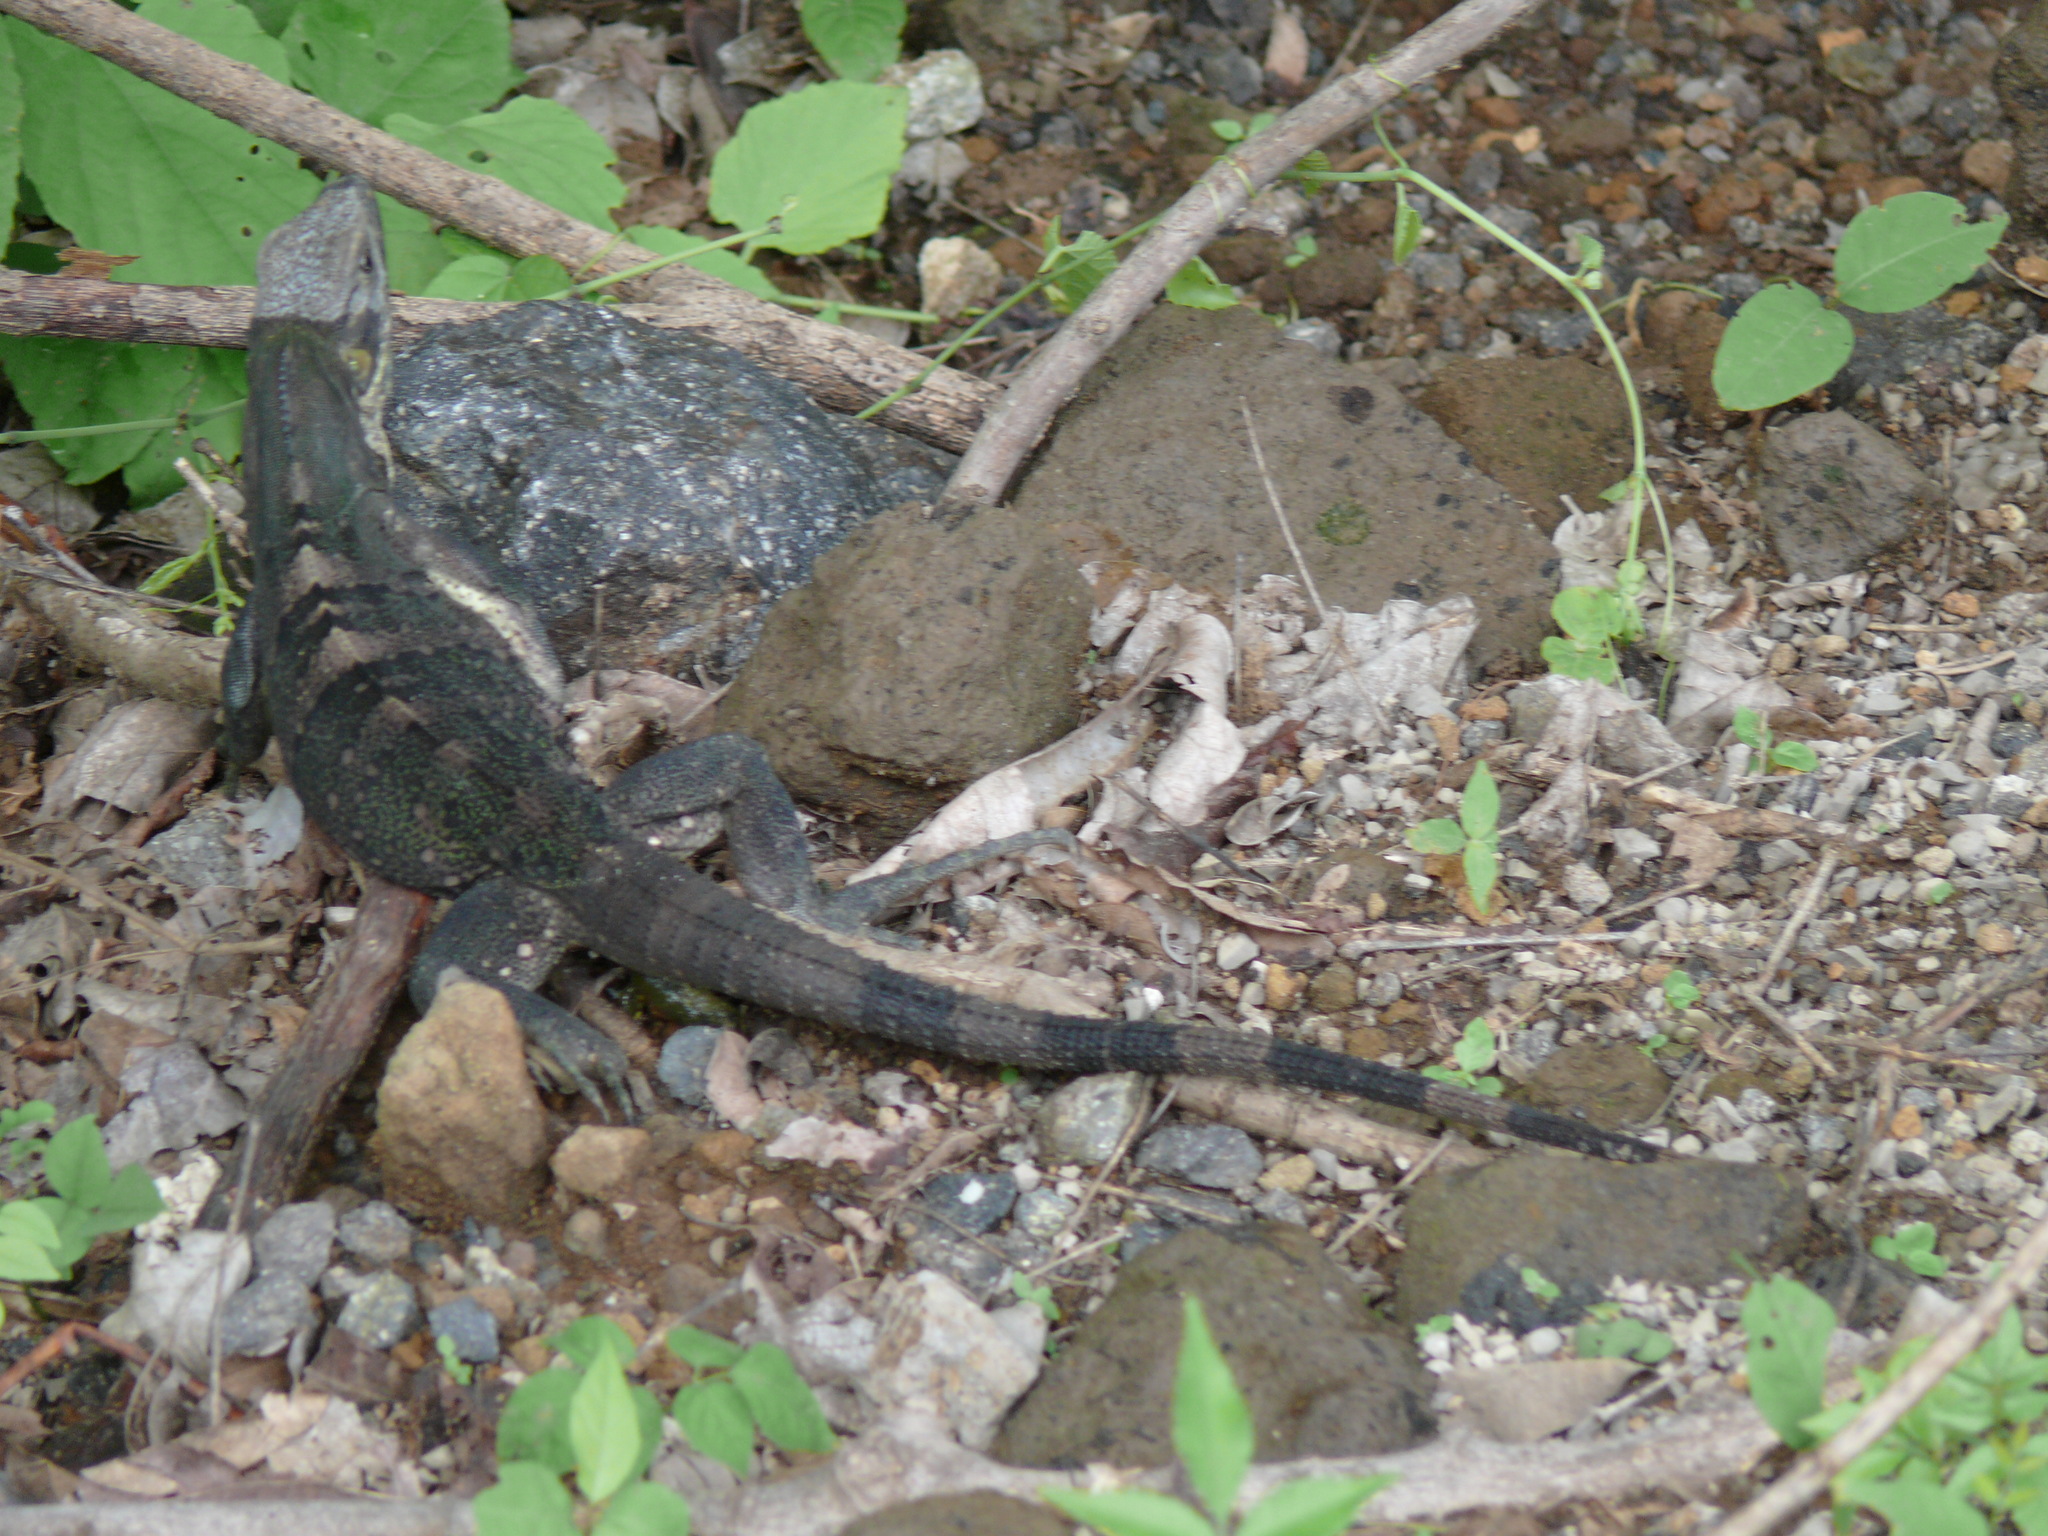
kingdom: Animalia
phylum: Chordata
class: Squamata
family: Iguanidae
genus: Ctenosaura
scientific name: Ctenosaura similis
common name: Black spiny-tailed iguana
